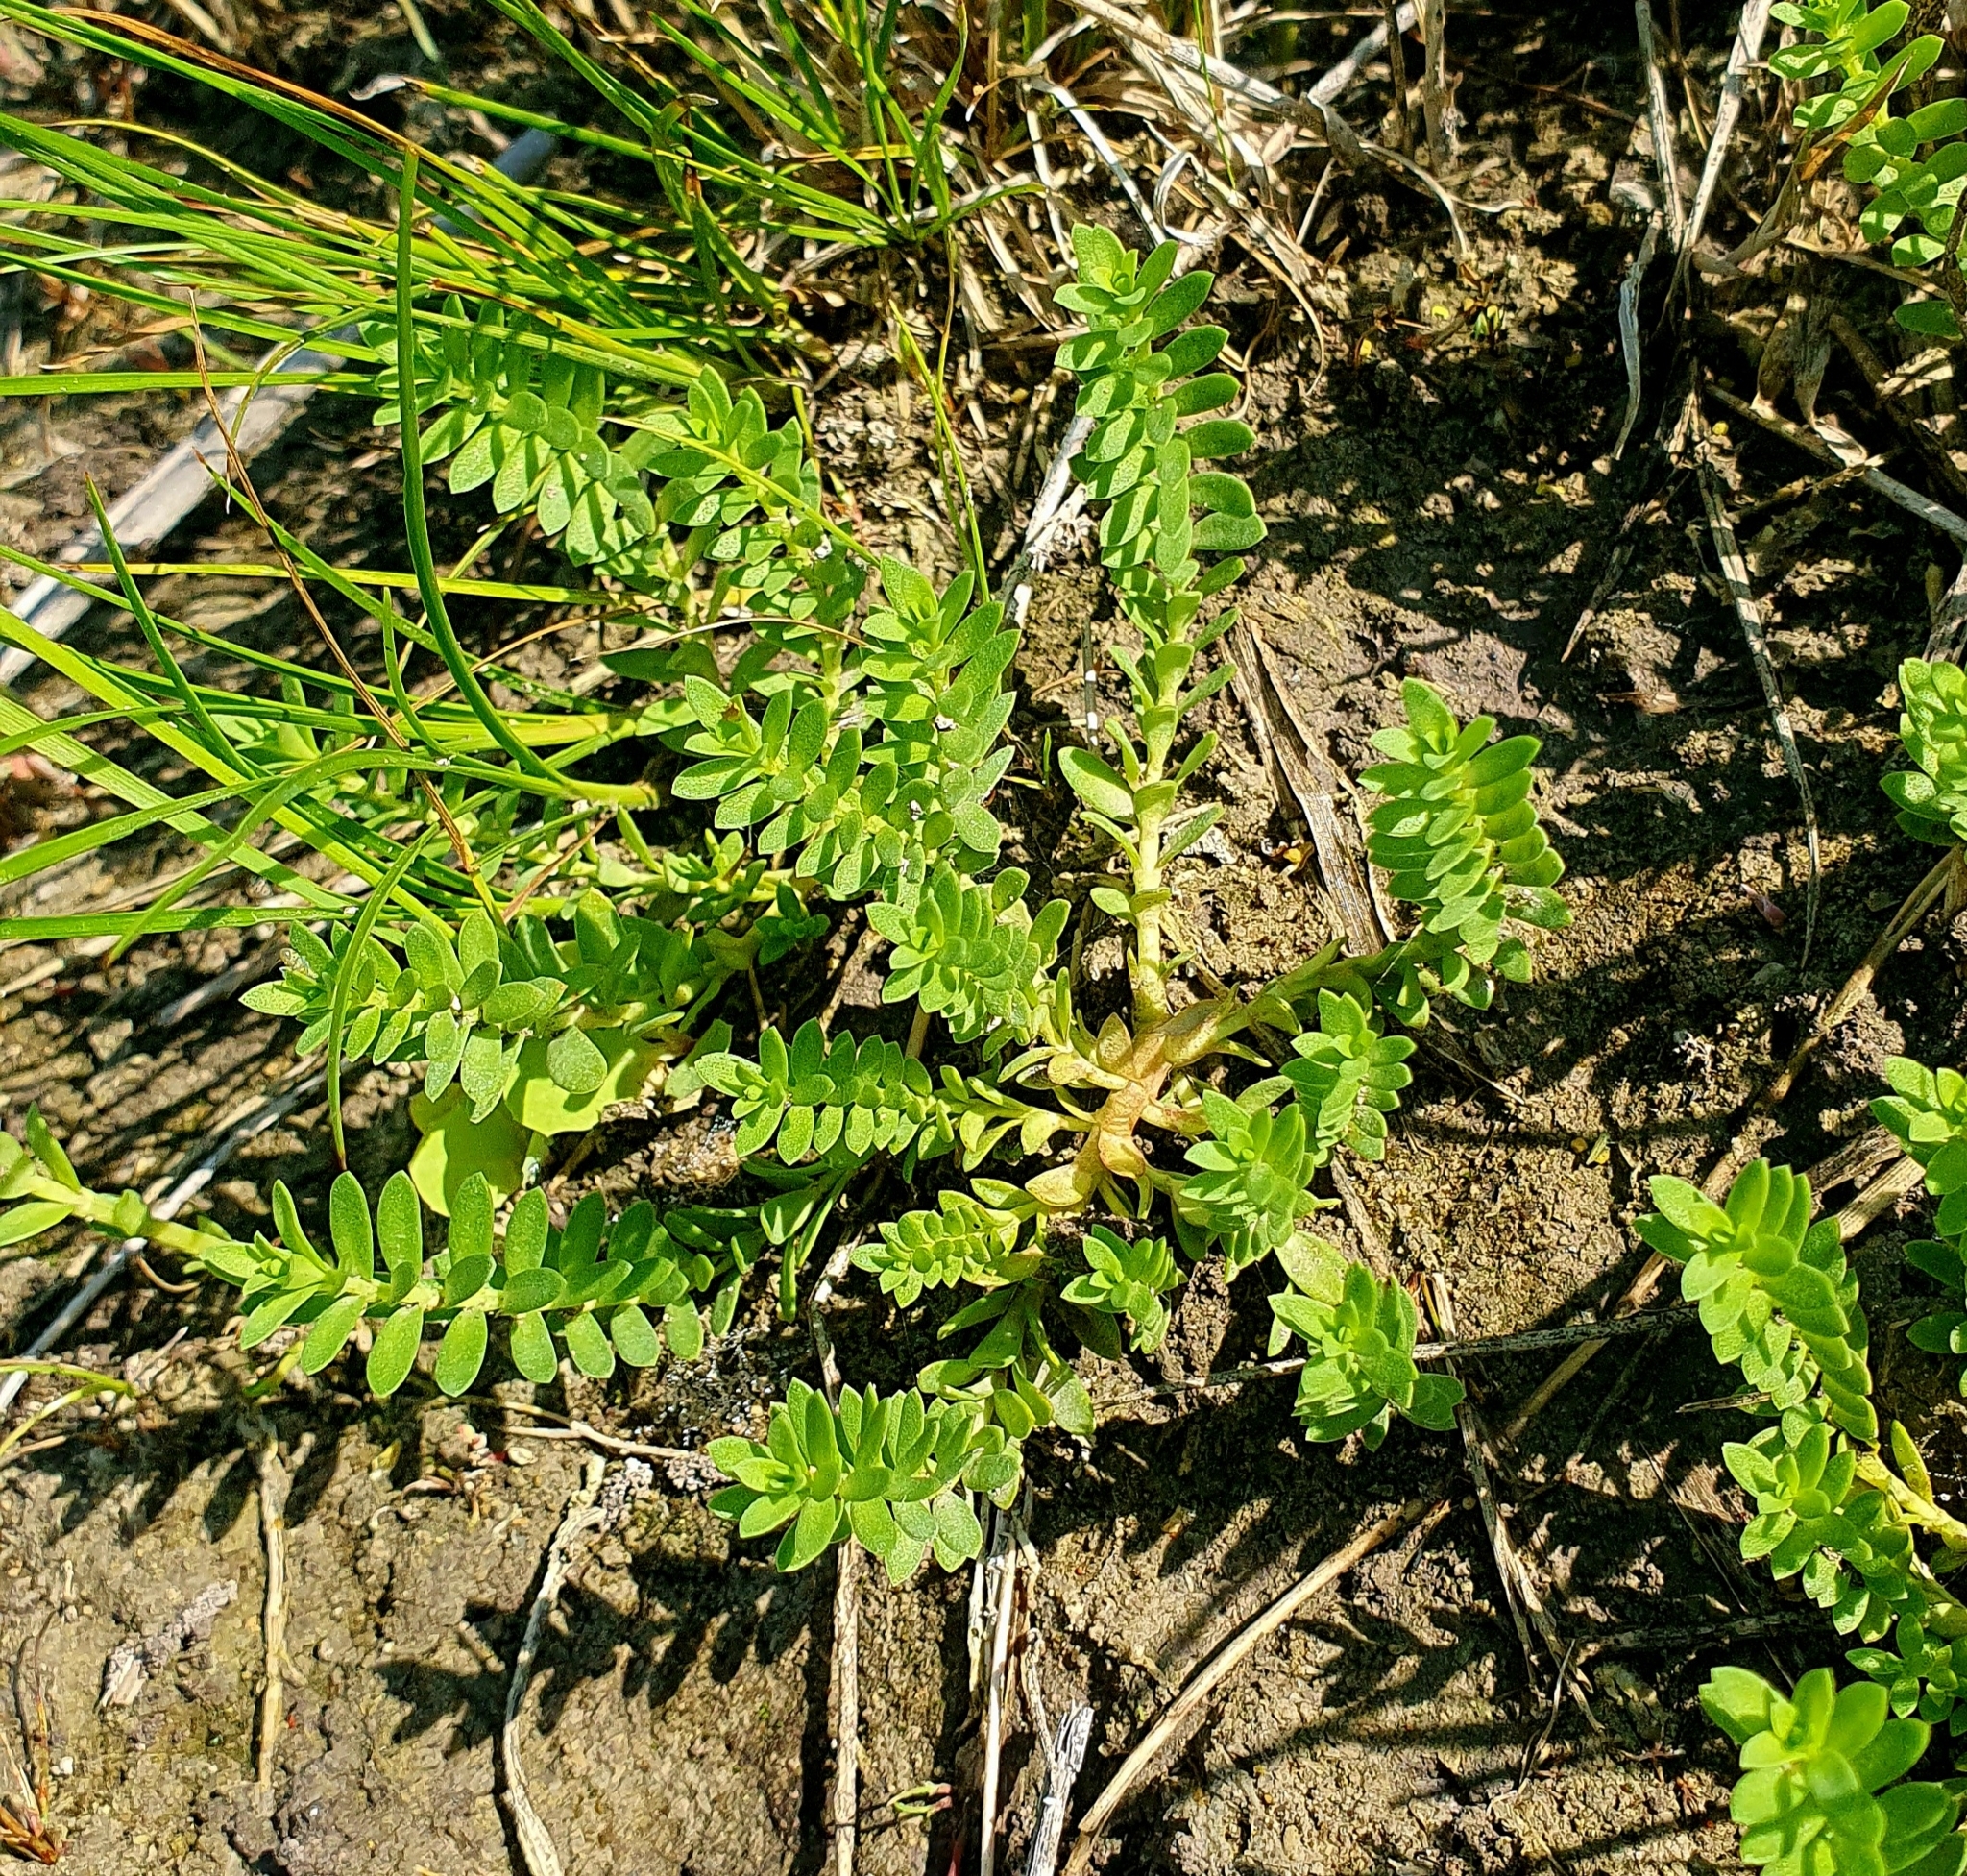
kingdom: Plantae
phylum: Tracheophyta
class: Magnoliopsida
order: Ericales
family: Primulaceae
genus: Lysimachia
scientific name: Lysimachia maritima
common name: Sea milkwort
